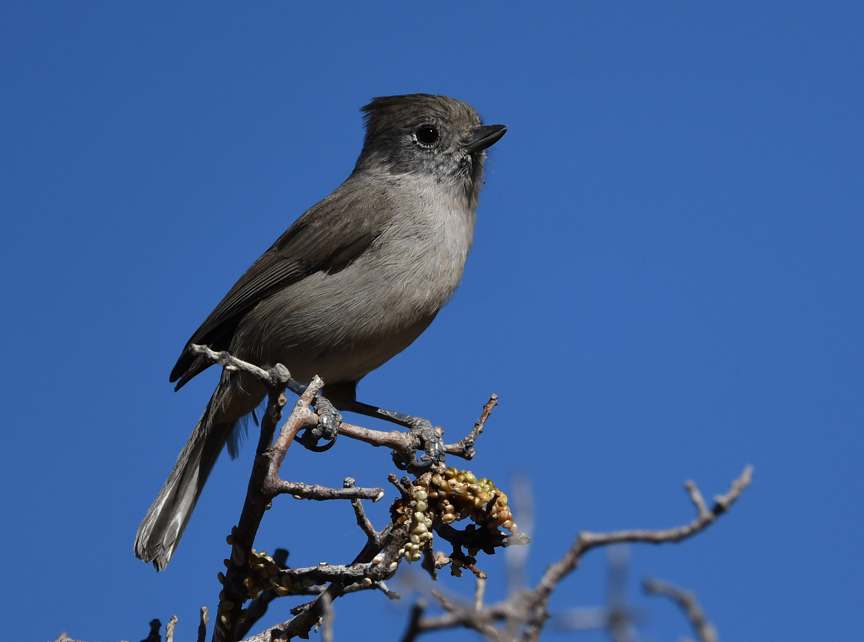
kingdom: Animalia
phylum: Chordata
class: Aves
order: Passeriformes
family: Paridae
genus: Baeolophus
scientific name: Baeolophus inornatus
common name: Oak titmouse
